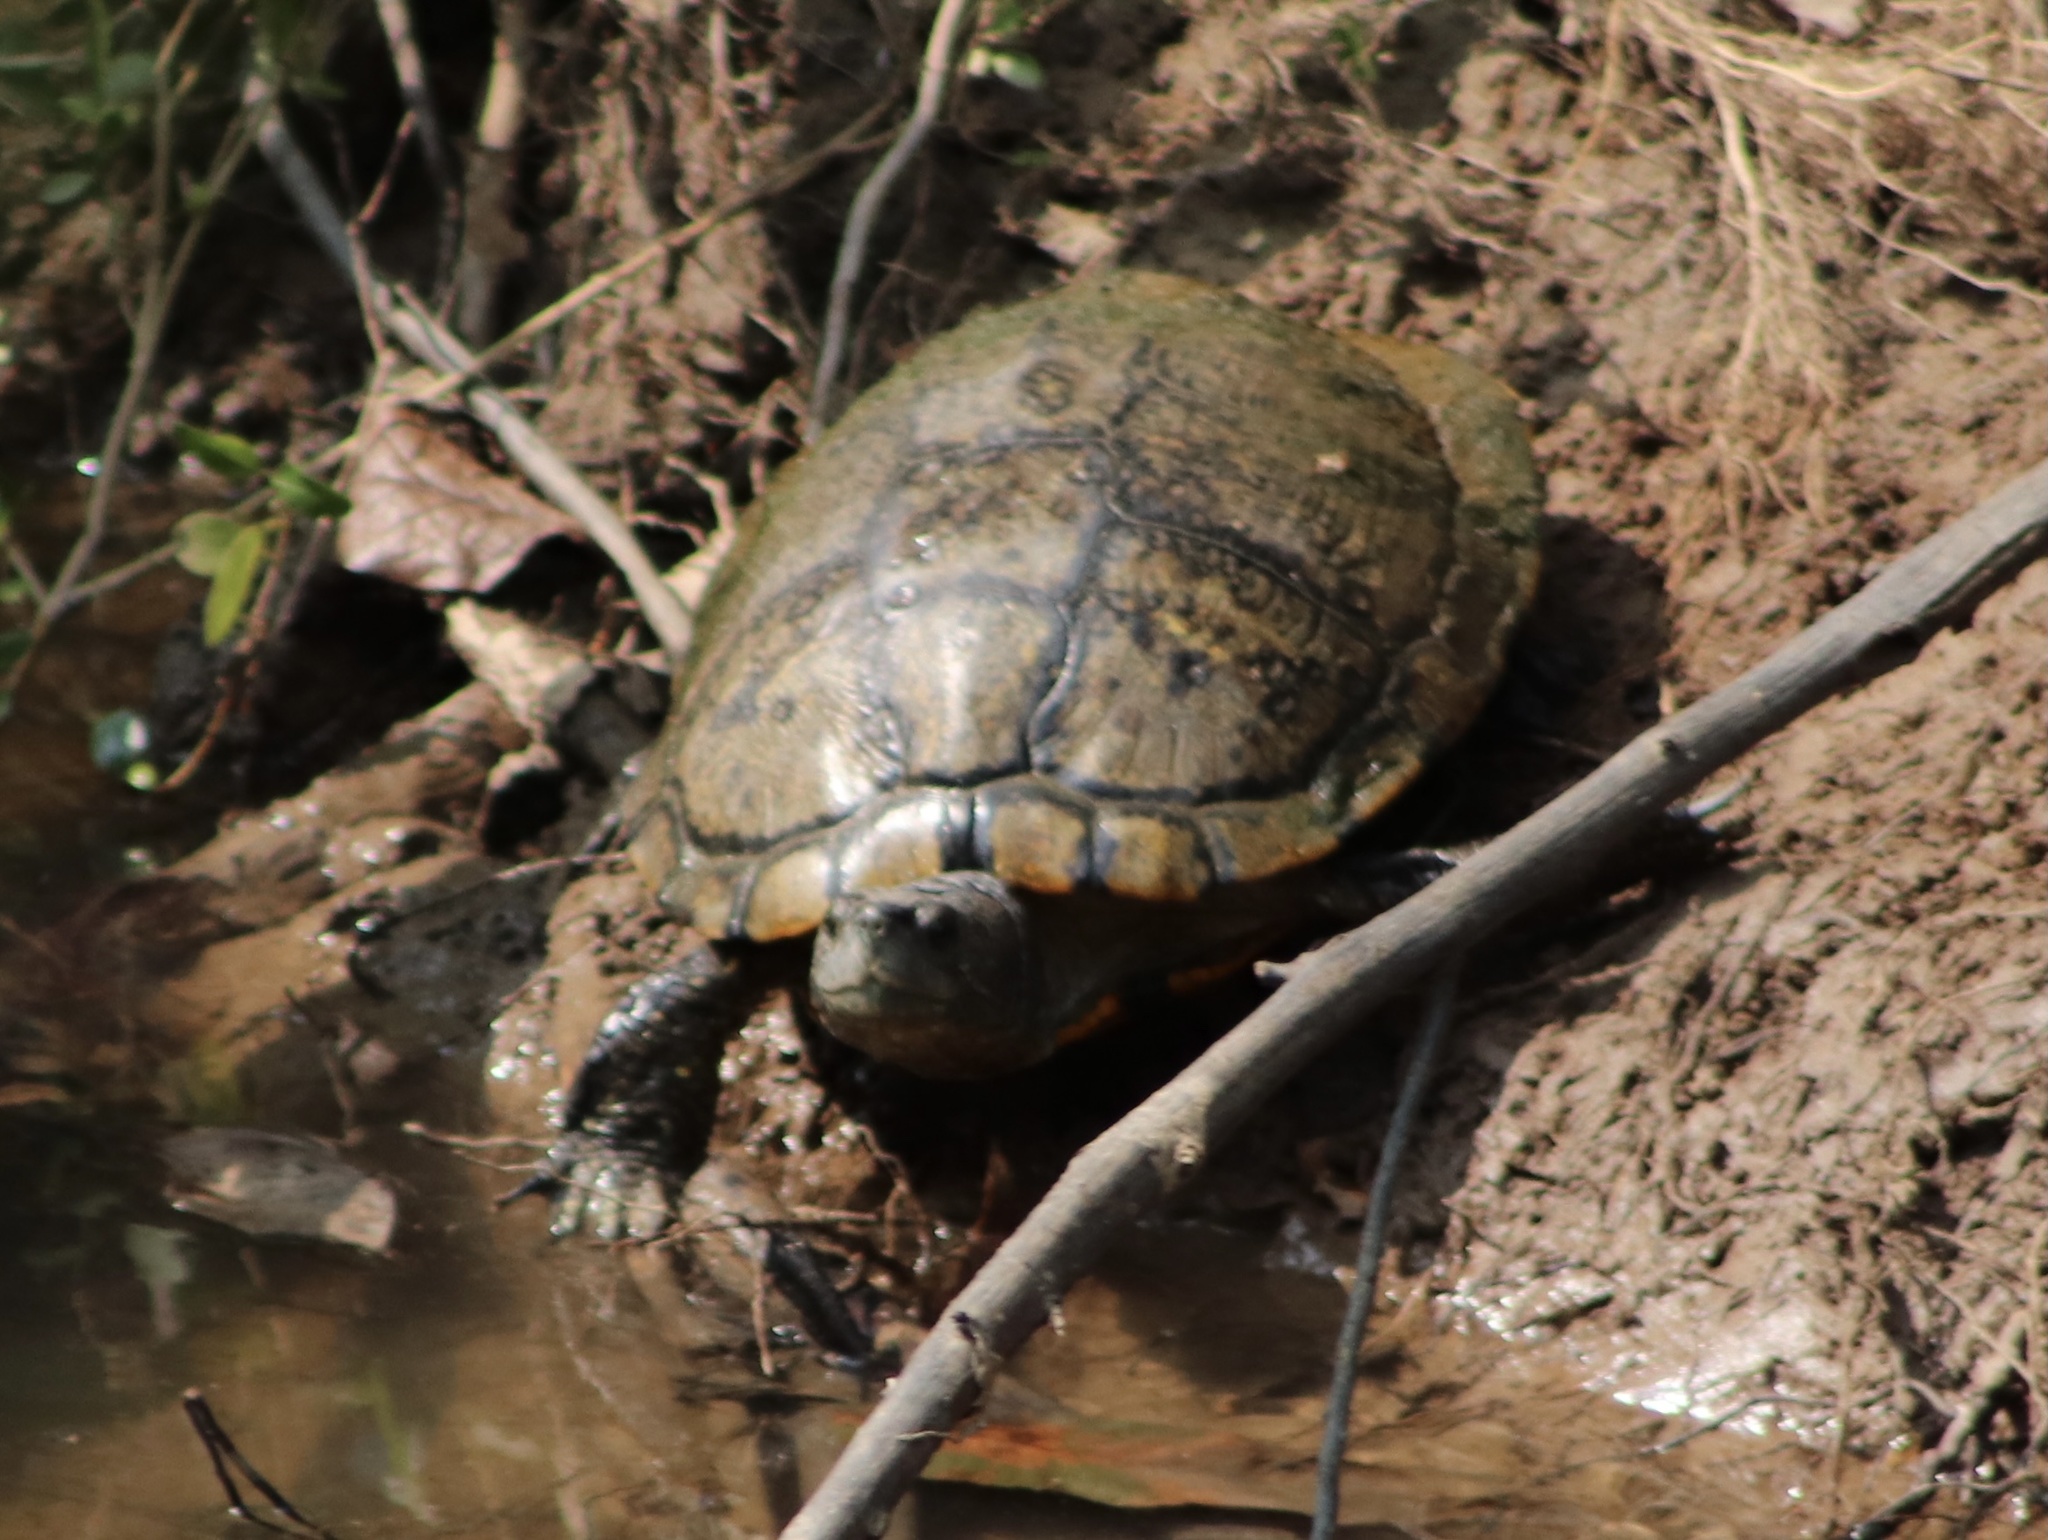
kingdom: Animalia
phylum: Chordata
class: Testudines
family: Emydidae
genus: Trachemys
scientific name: Trachemys scripta
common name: Slider
